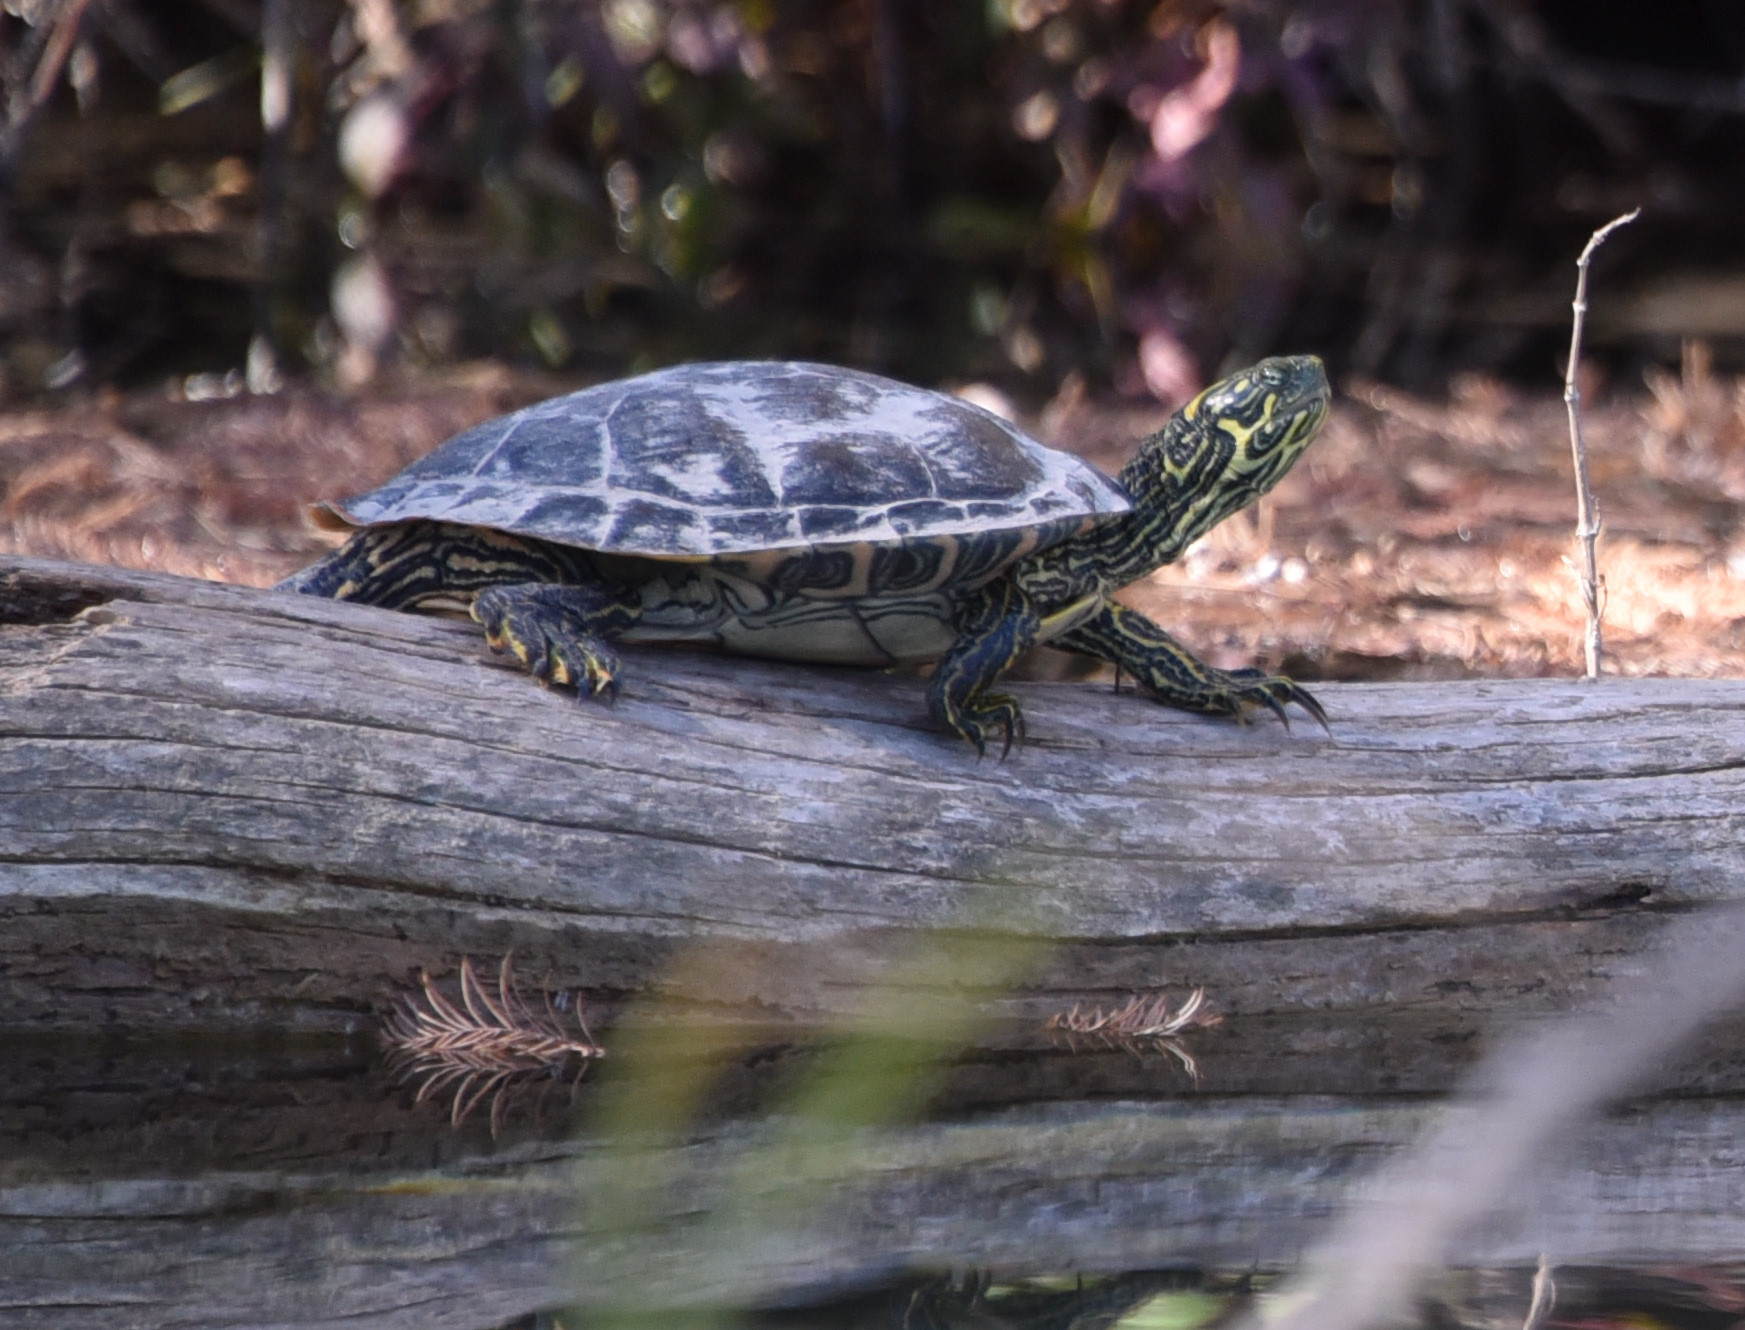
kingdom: Animalia
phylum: Chordata
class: Testudines
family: Emydidae
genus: Pseudemys
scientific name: Pseudemys texana
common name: Texas river cooter
